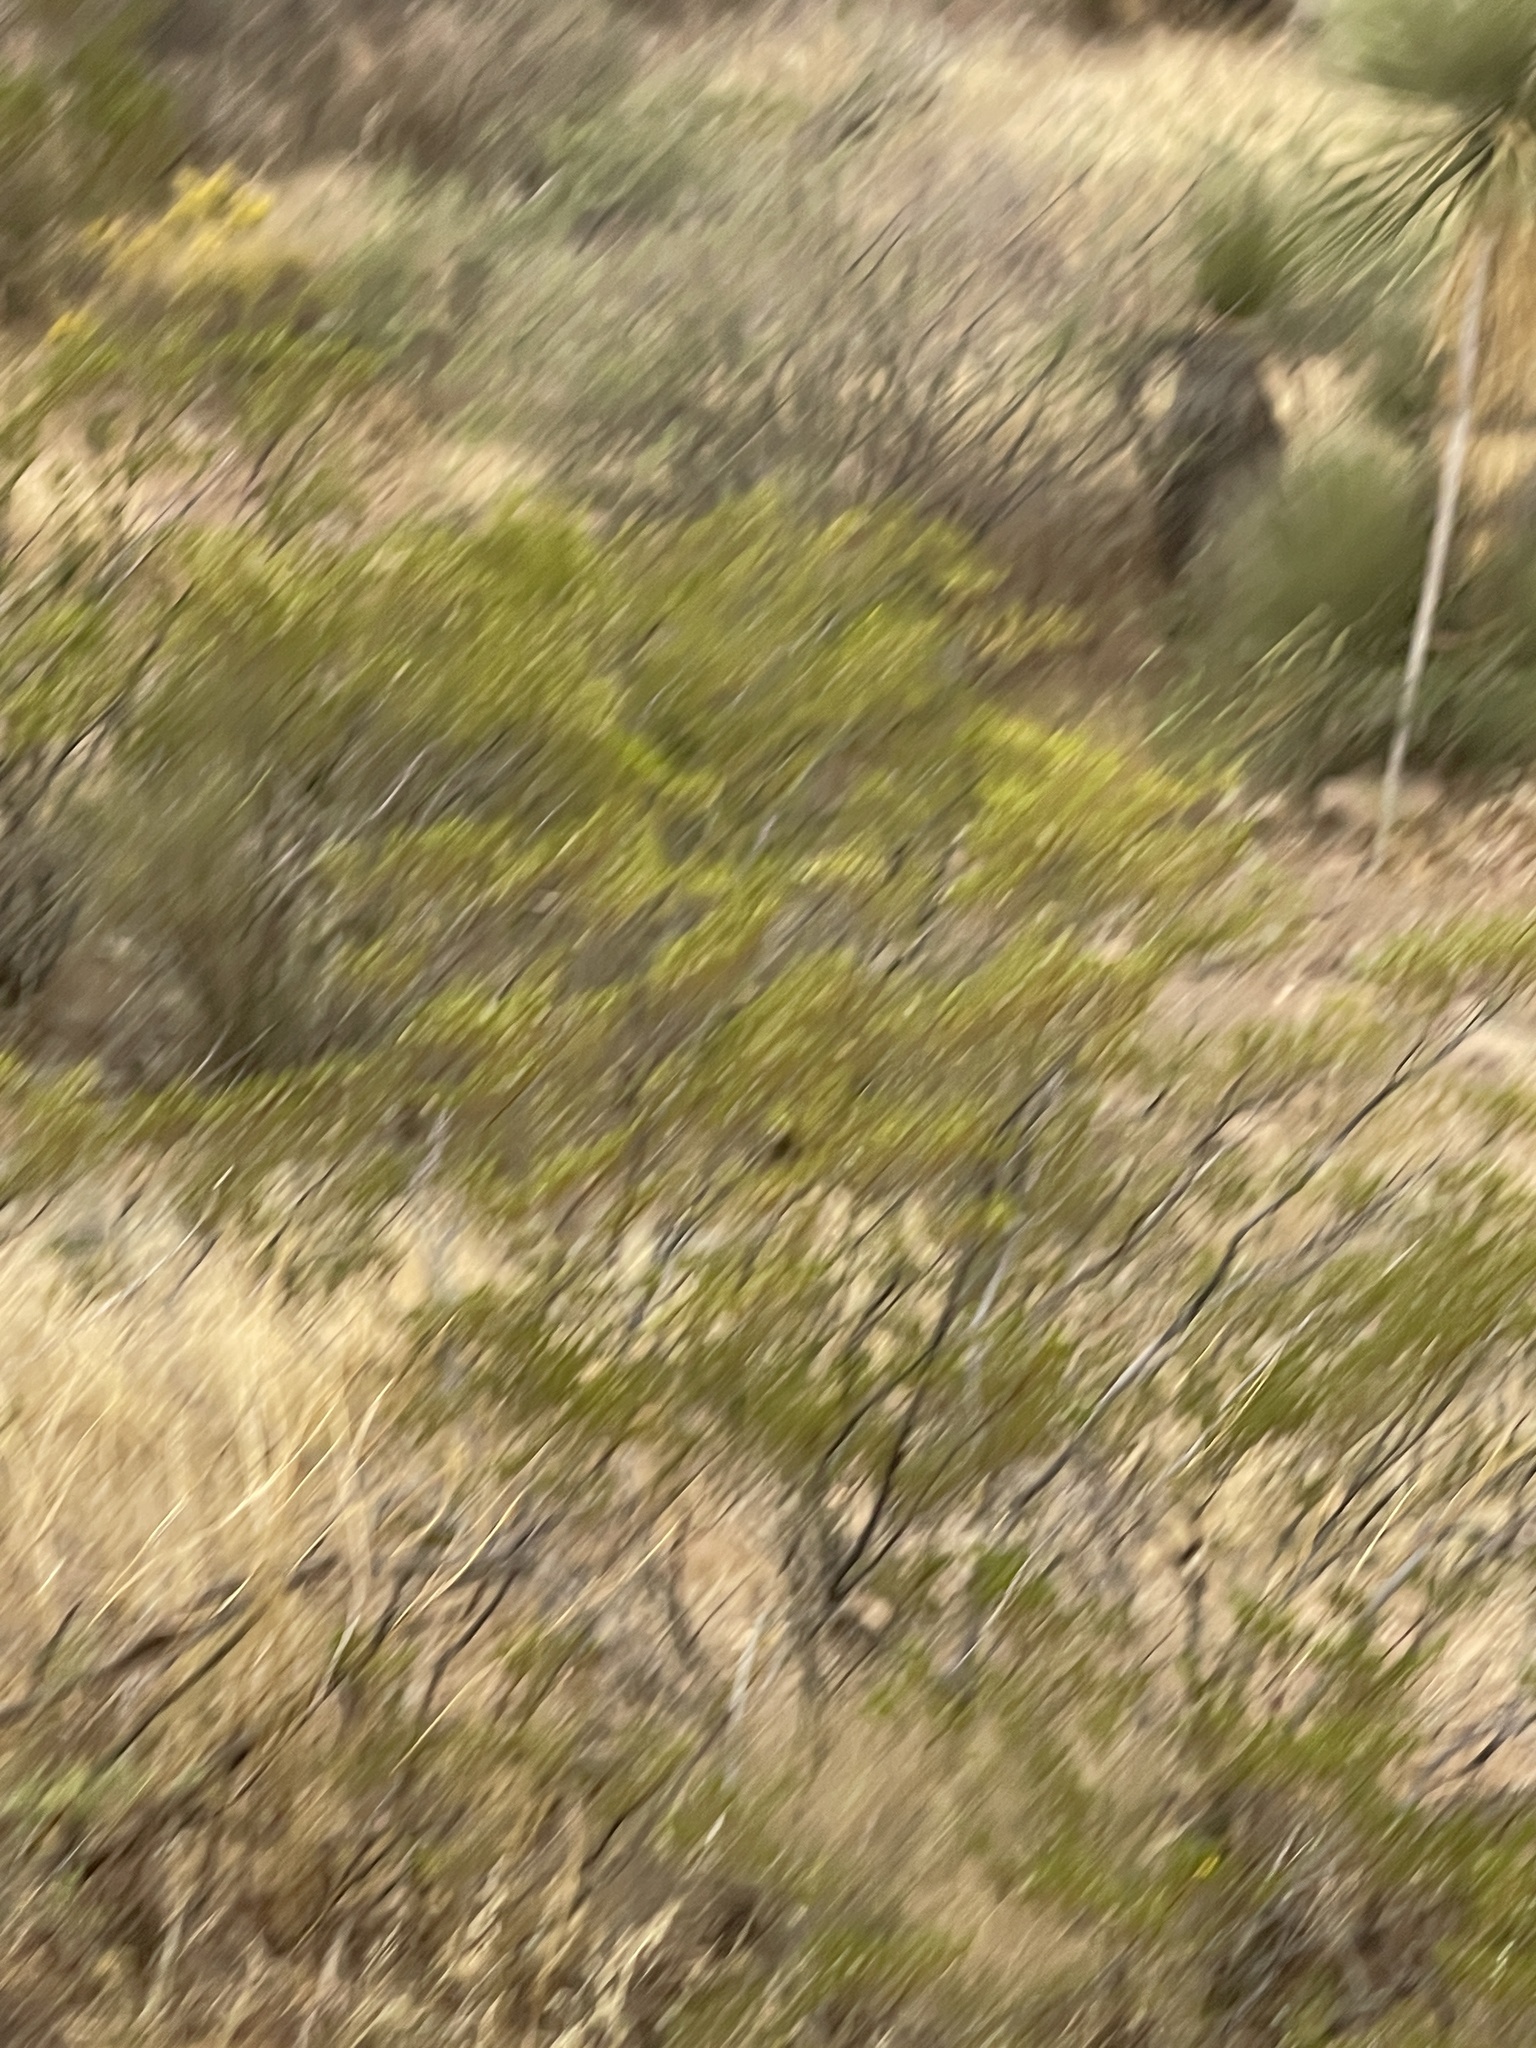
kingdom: Plantae
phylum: Tracheophyta
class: Magnoliopsida
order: Zygophyllales
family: Zygophyllaceae
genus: Larrea
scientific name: Larrea tridentata
